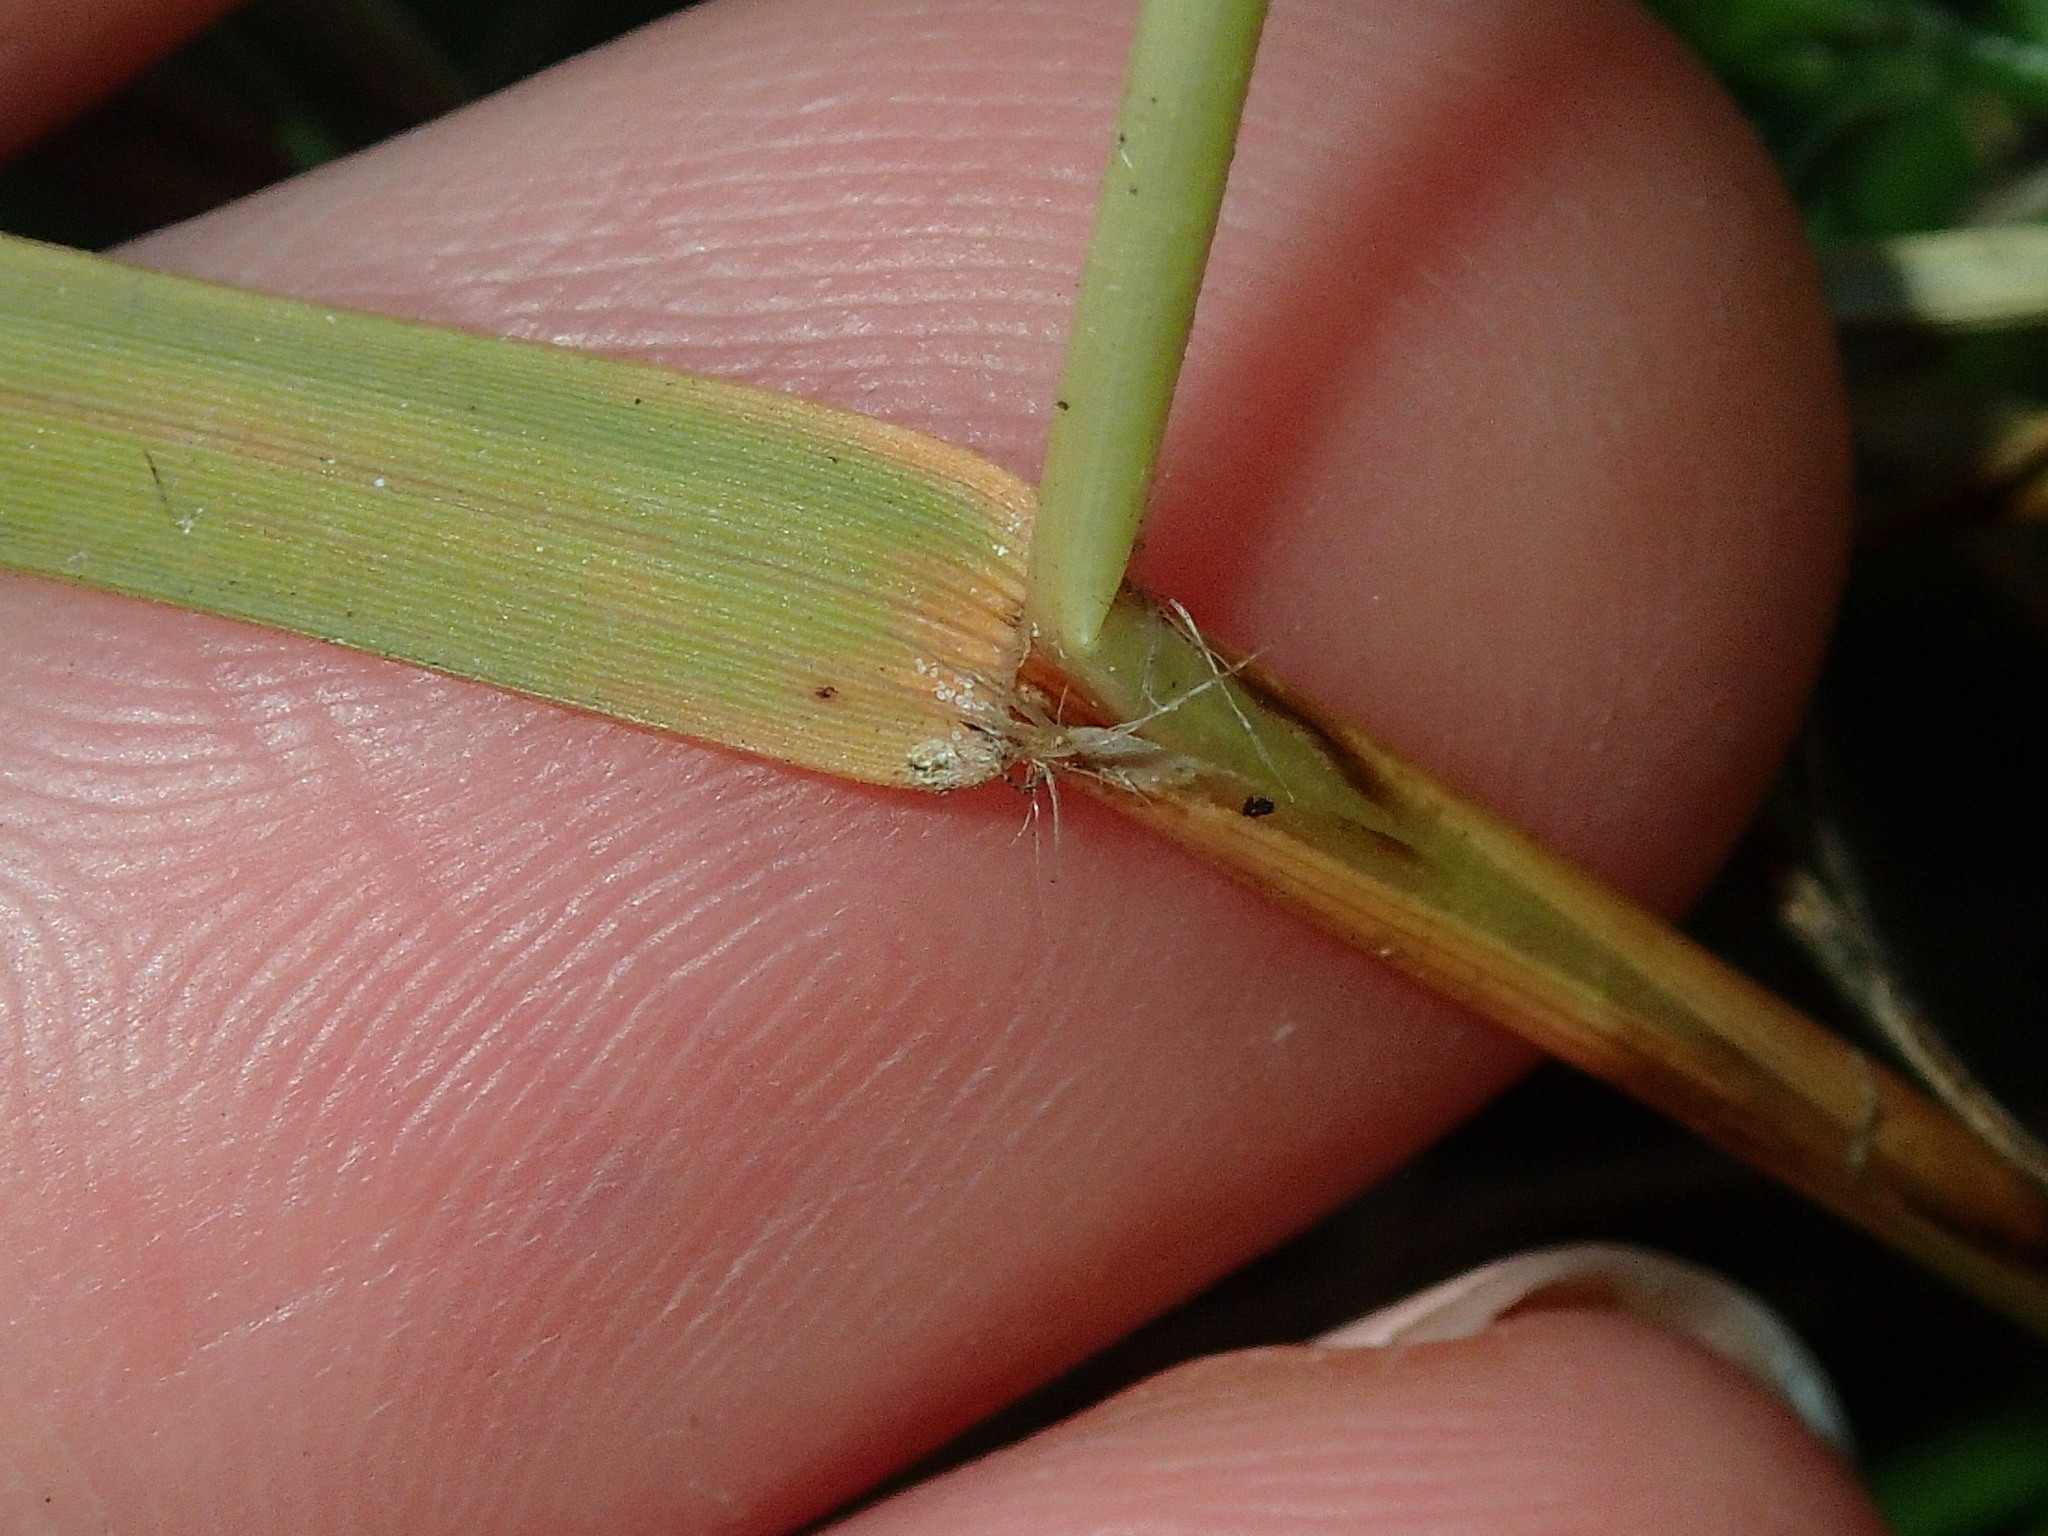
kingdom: Plantae
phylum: Tracheophyta
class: Liliopsida
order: Poales
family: Poaceae
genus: Danthonia
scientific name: Danthonia spicata
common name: Common wild oatgrass
